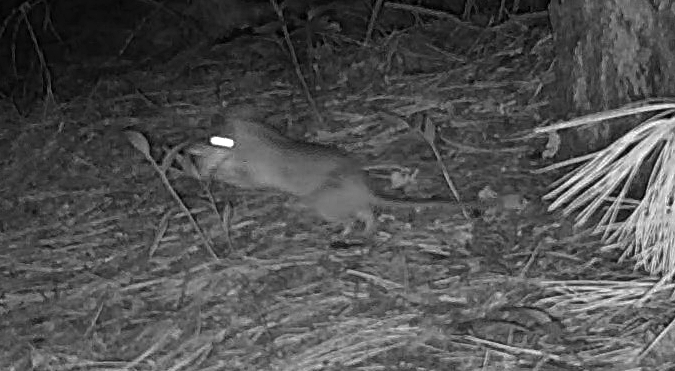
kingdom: Animalia
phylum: Chordata
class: Mammalia
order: Rodentia
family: Cricetidae
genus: Neotoma
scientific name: Neotoma cinerea
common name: Bushy-tailed woodrat
